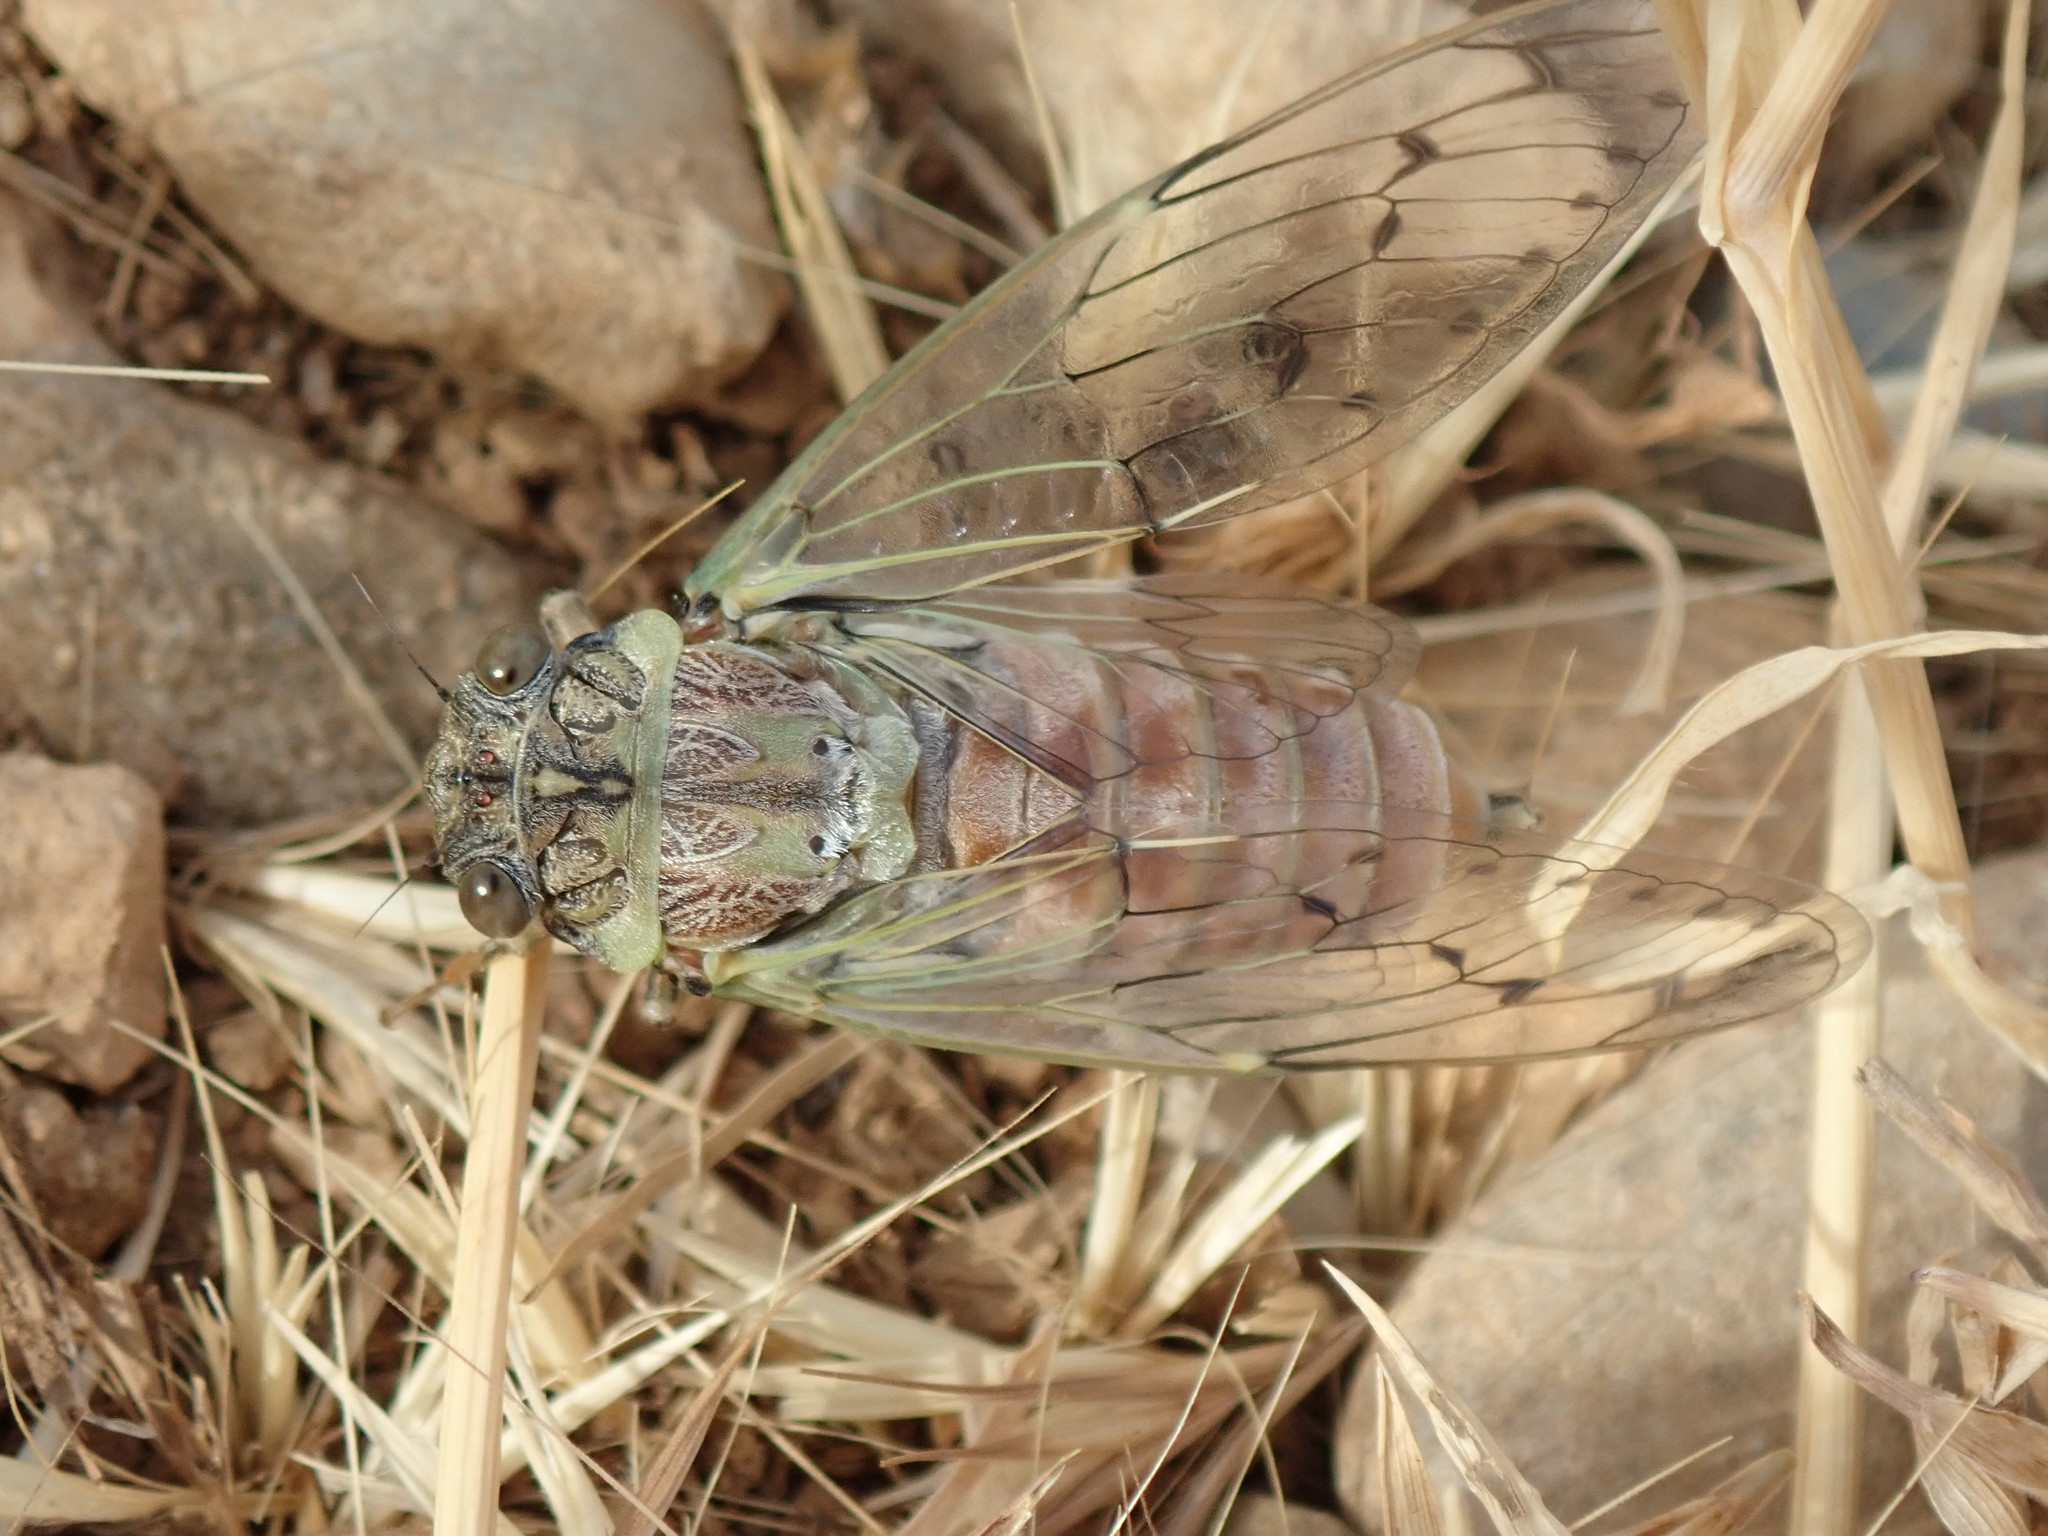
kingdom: Animalia
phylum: Arthropoda
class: Insecta
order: Hemiptera
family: Cicadidae
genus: Cicada
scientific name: Cicada orni
